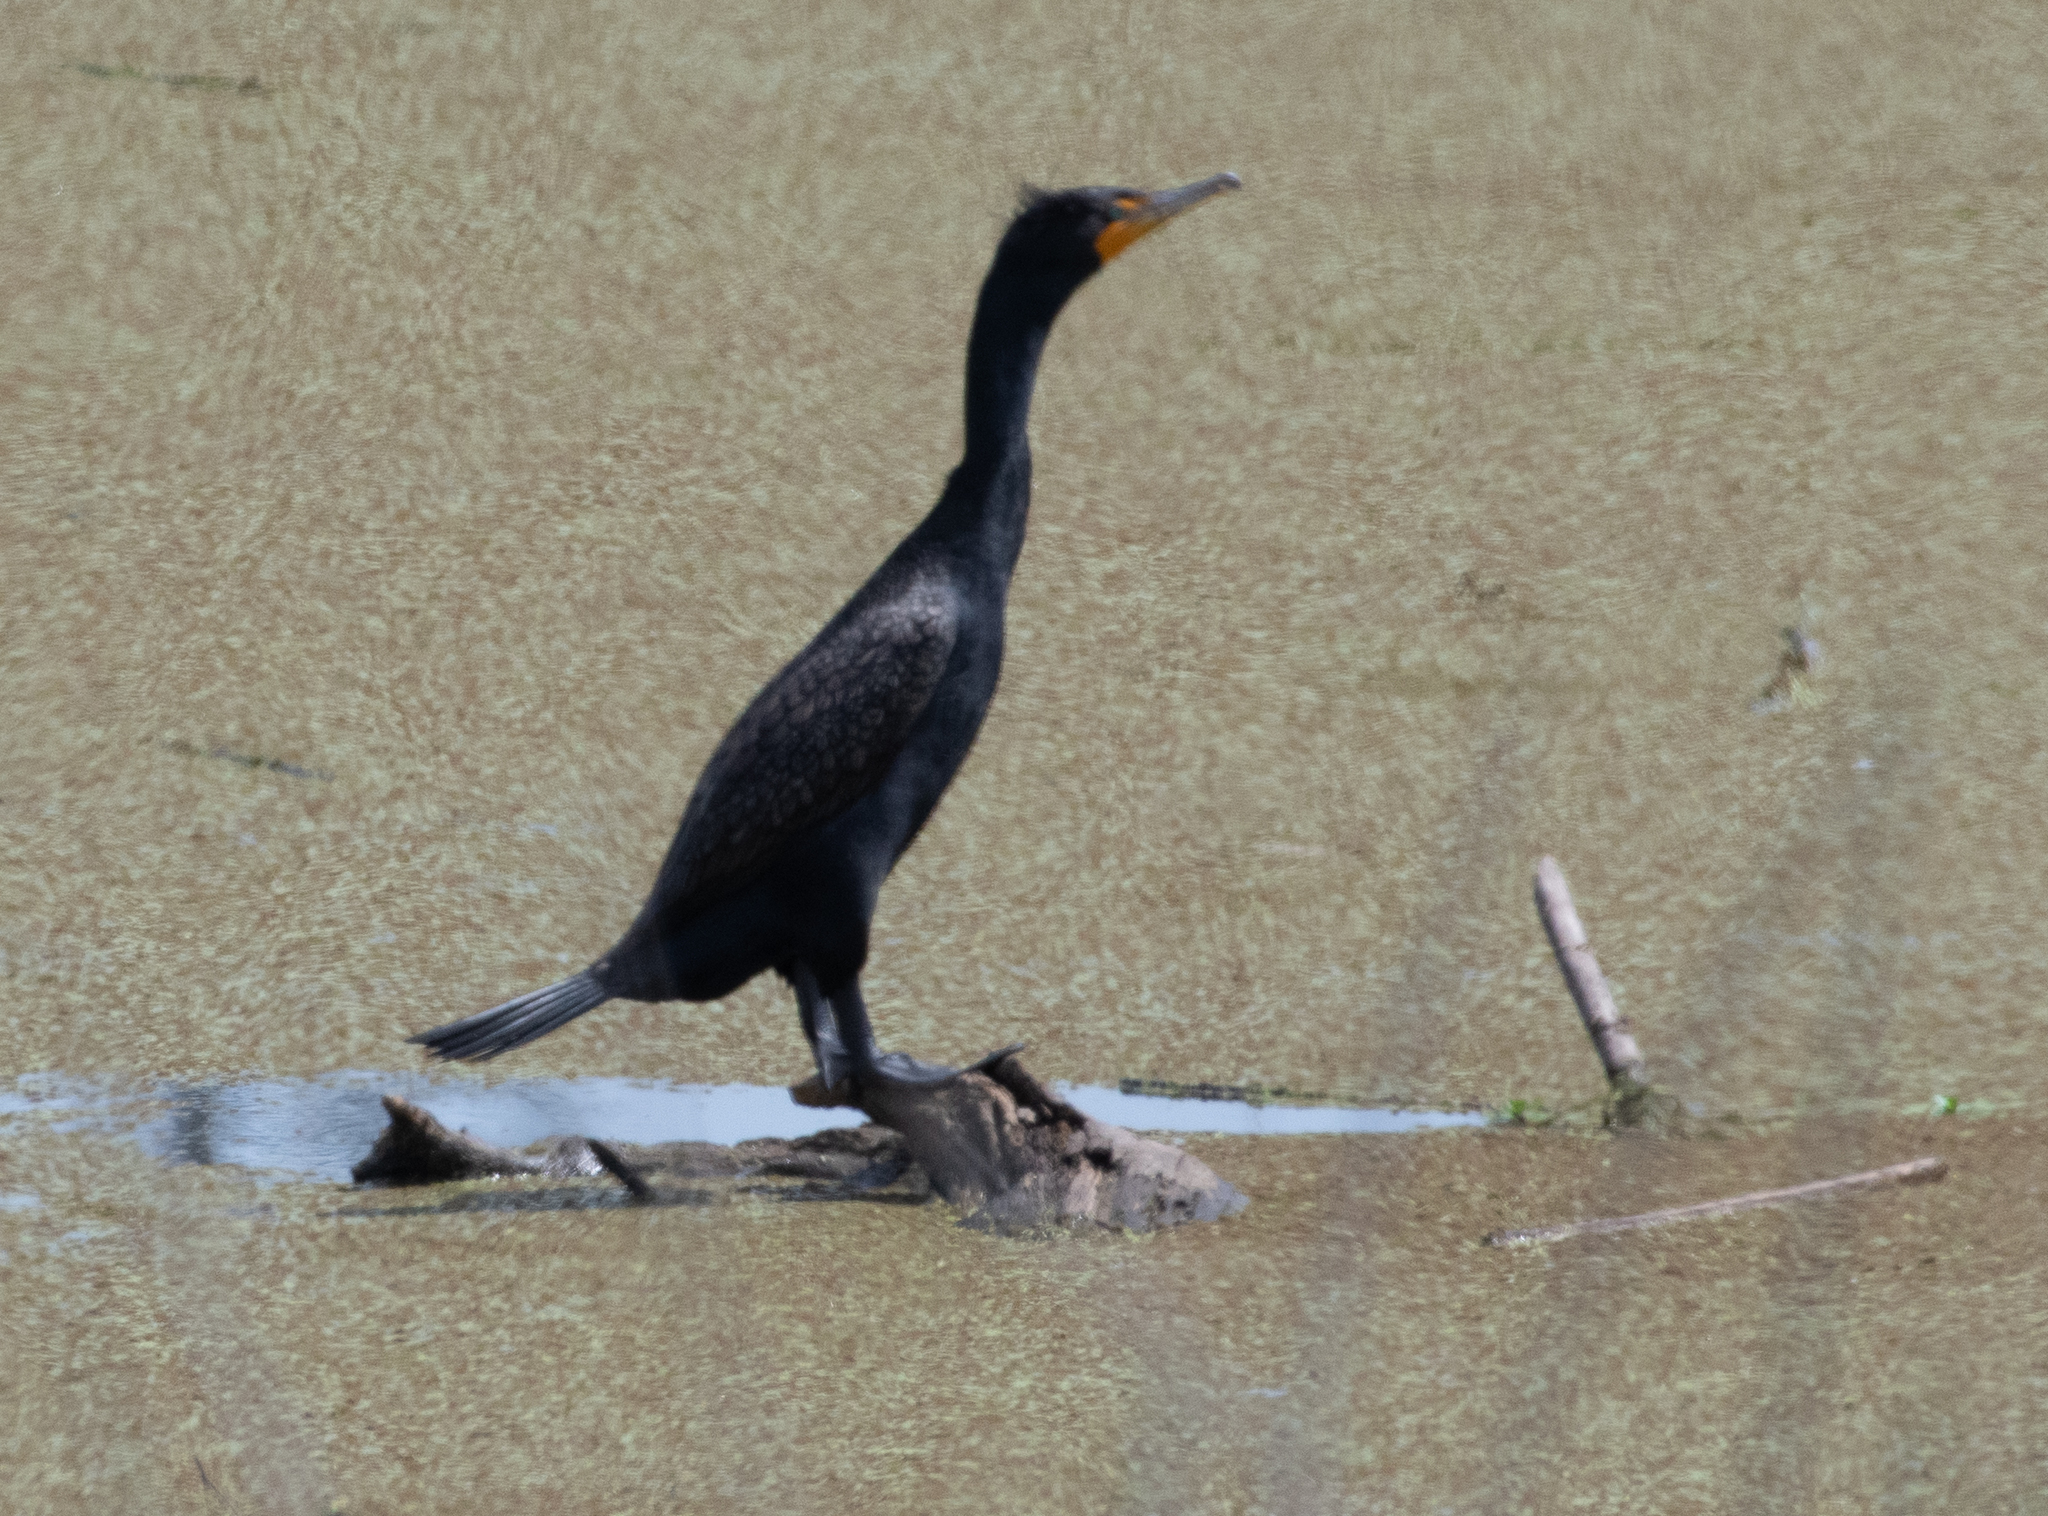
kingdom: Animalia
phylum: Chordata
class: Aves
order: Suliformes
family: Phalacrocoracidae
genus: Phalacrocorax
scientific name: Phalacrocorax auritus
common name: Double-crested cormorant
